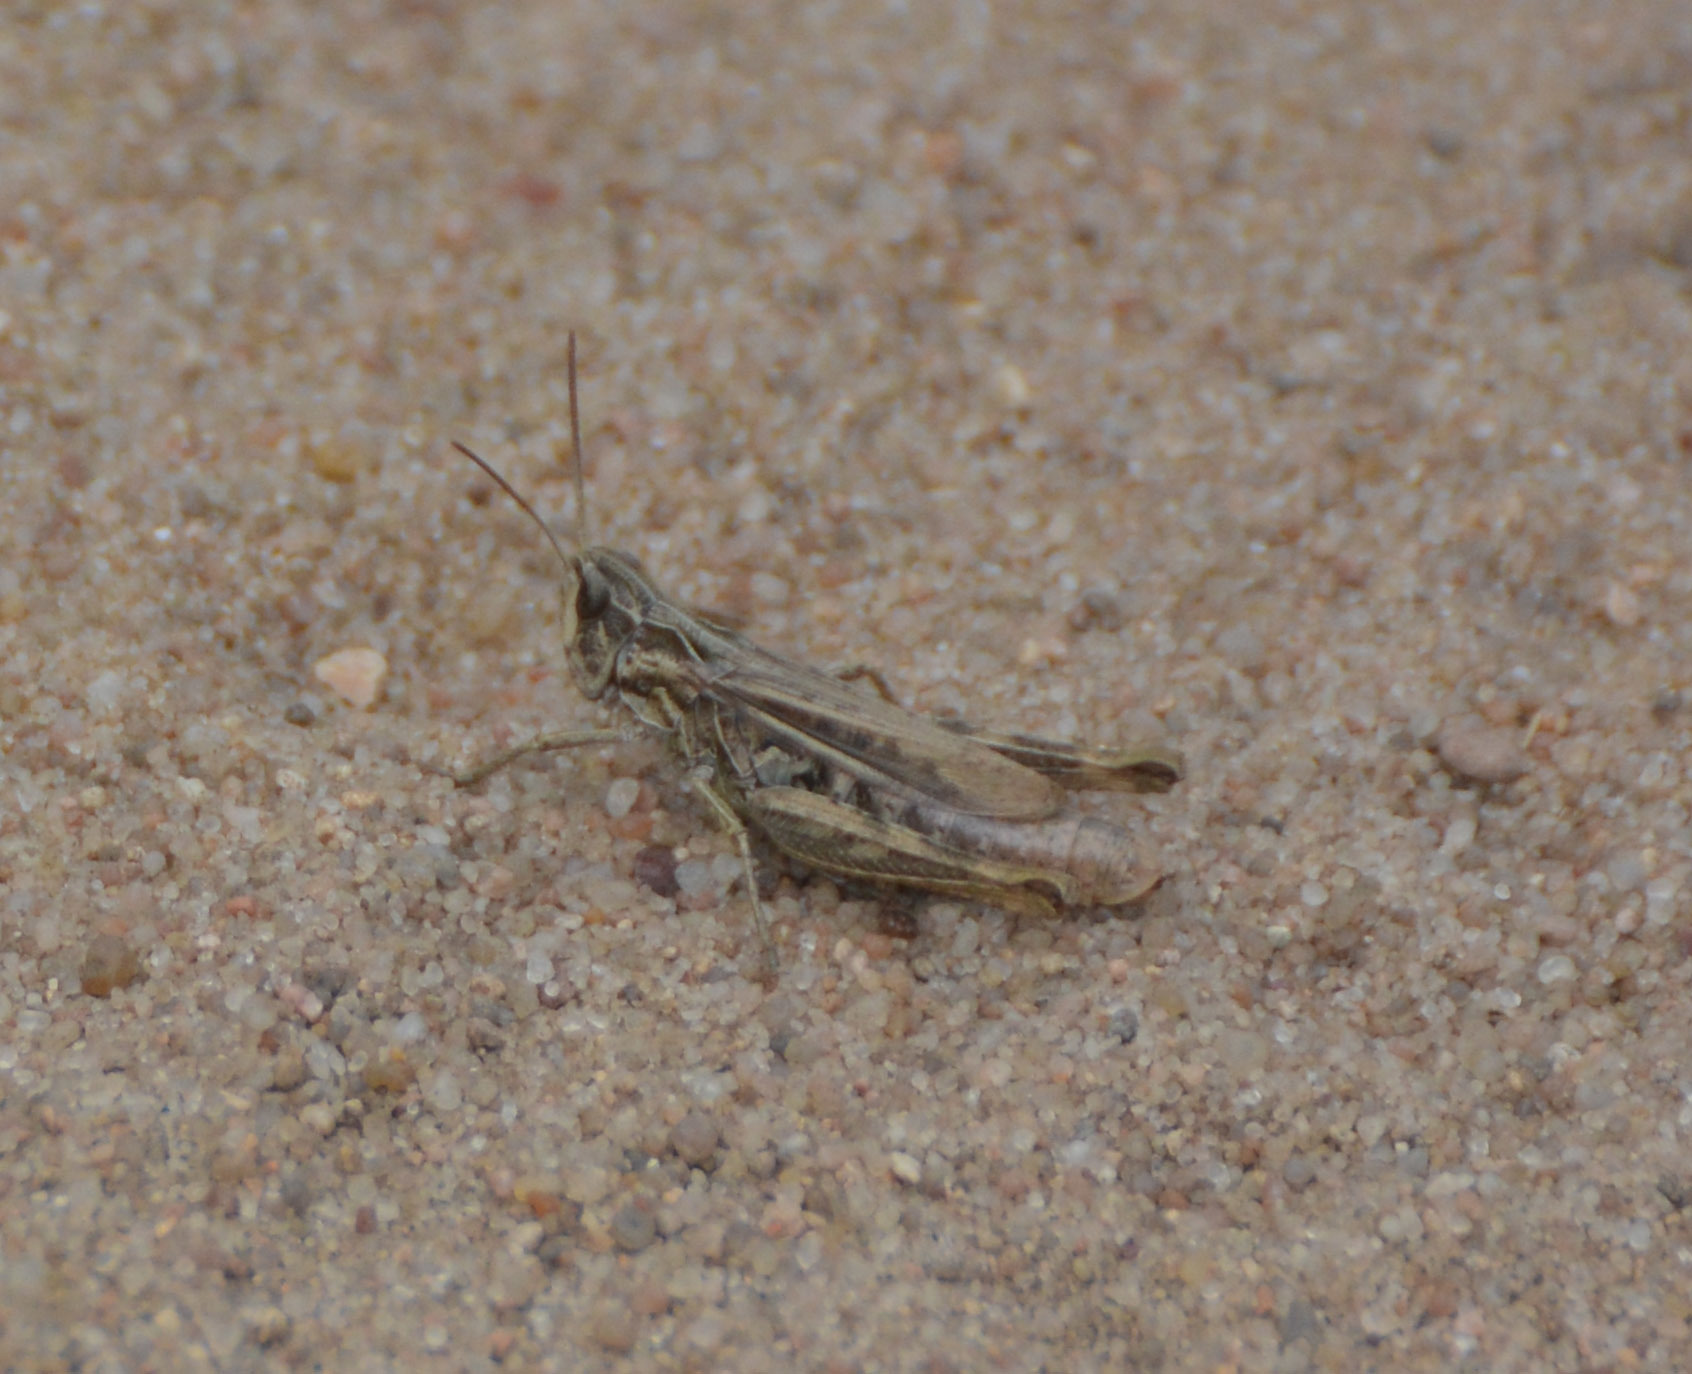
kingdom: Animalia
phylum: Arthropoda
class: Insecta
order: Orthoptera
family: Acrididae
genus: Chorthippus
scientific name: Chorthippus apricarius
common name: Upland field grasshopper
